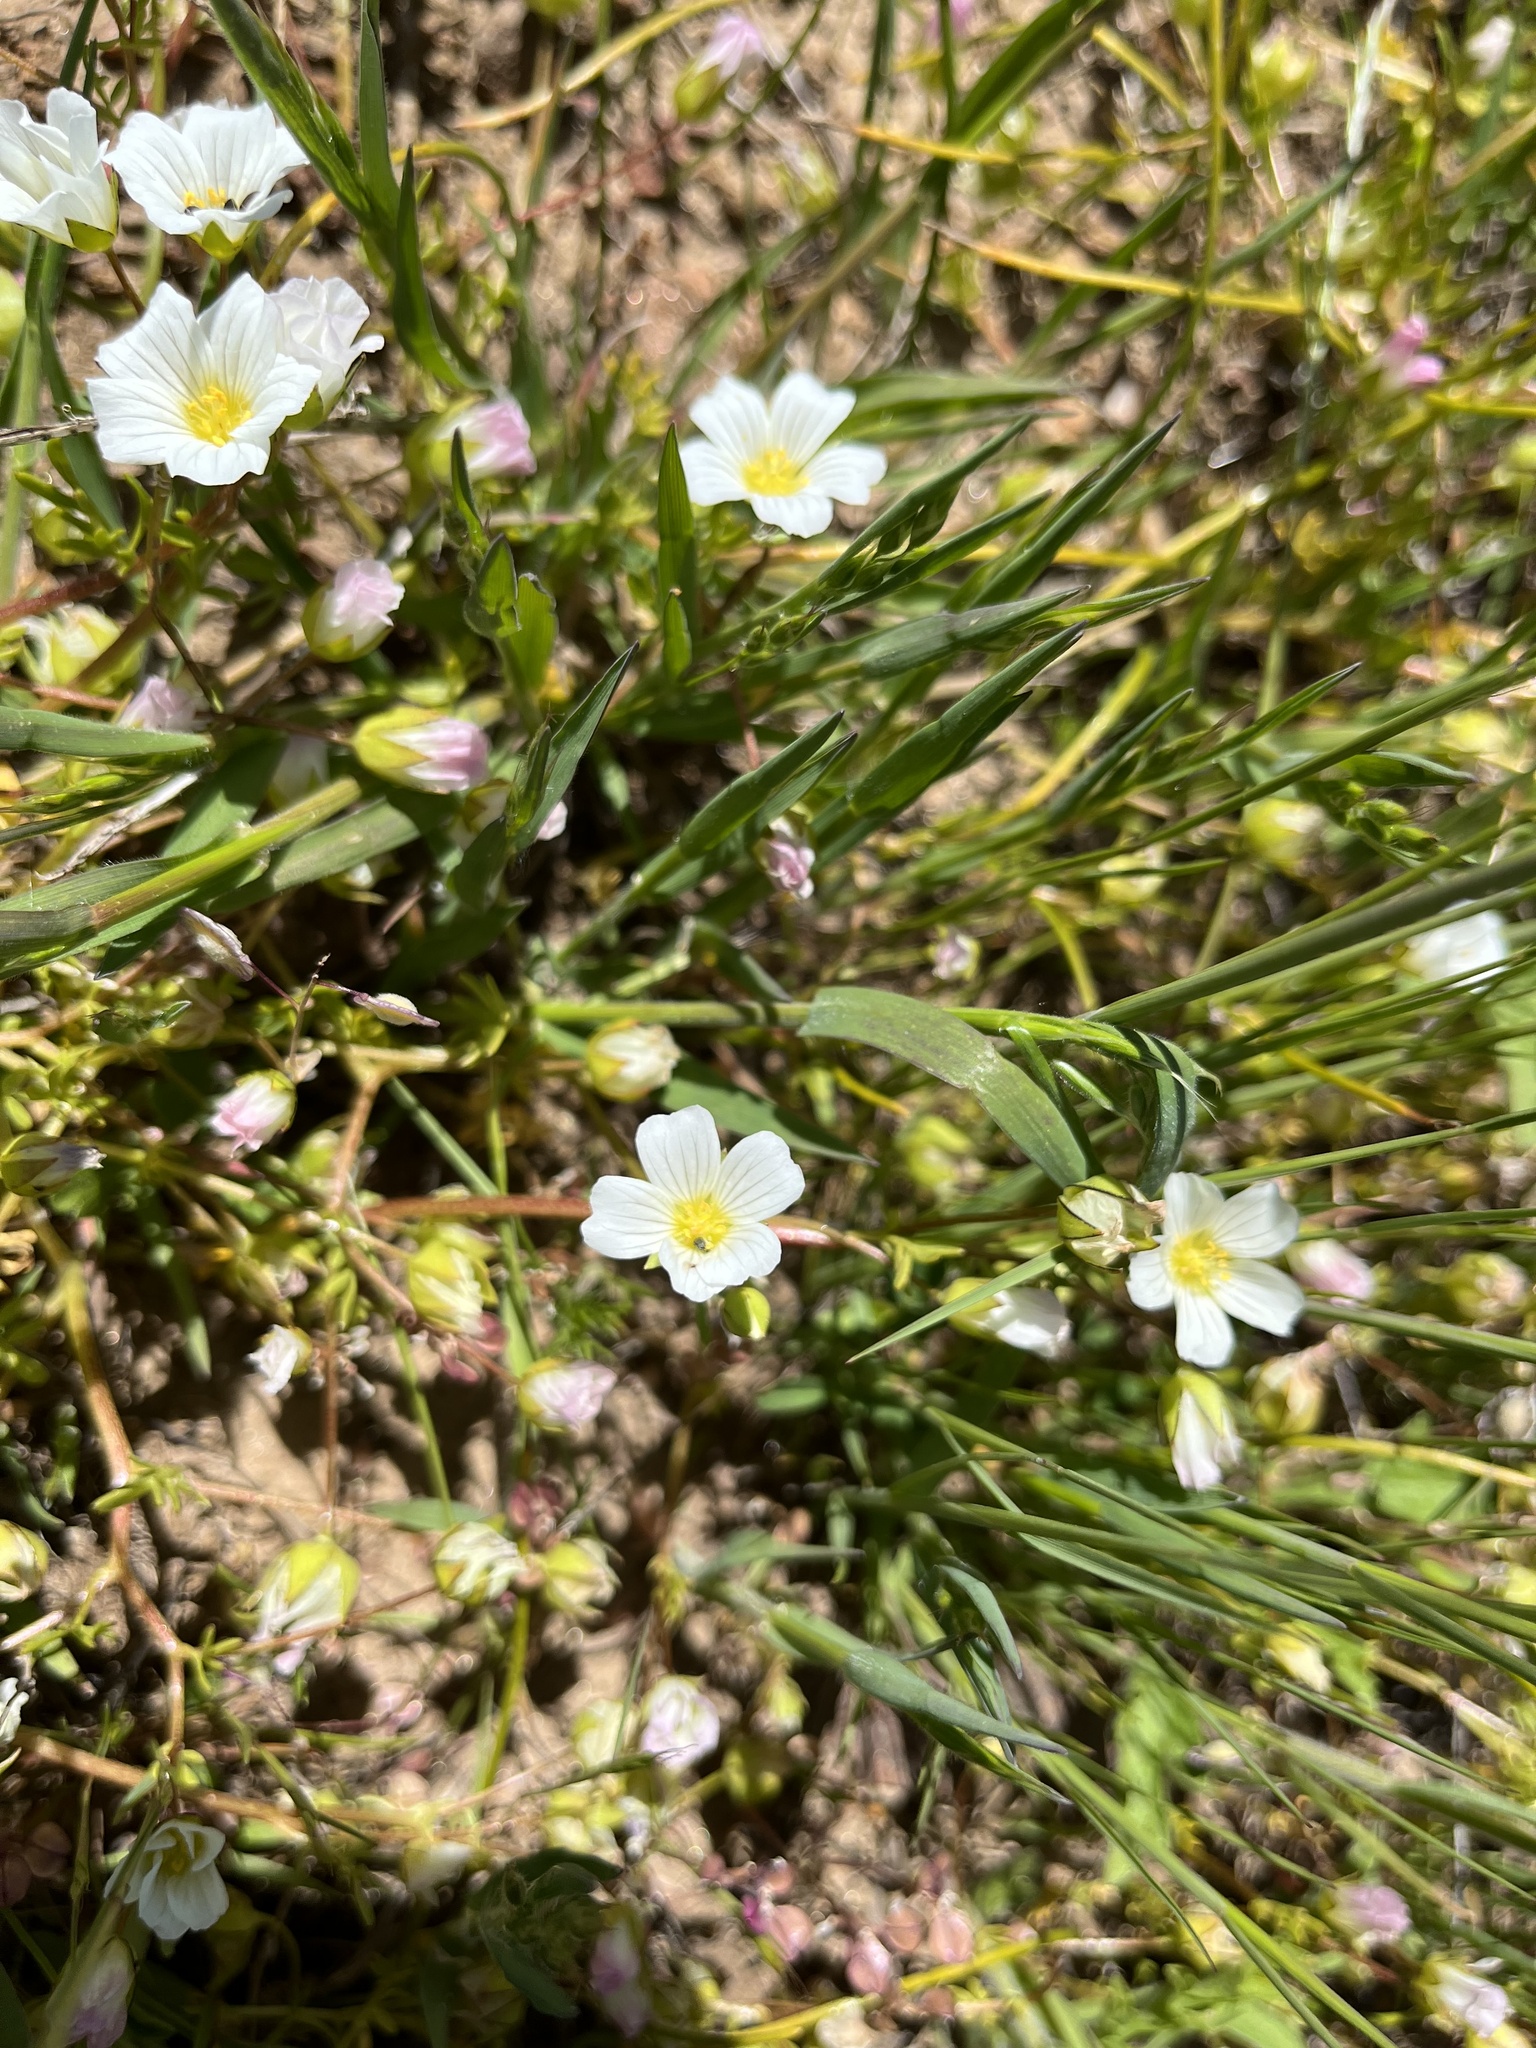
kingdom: Plantae
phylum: Tracheophyta
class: Magnoliopsida
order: Brassicales
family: Limnanthaceae
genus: Limnanthes
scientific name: Limnanthes alba
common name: Meadowfoam
